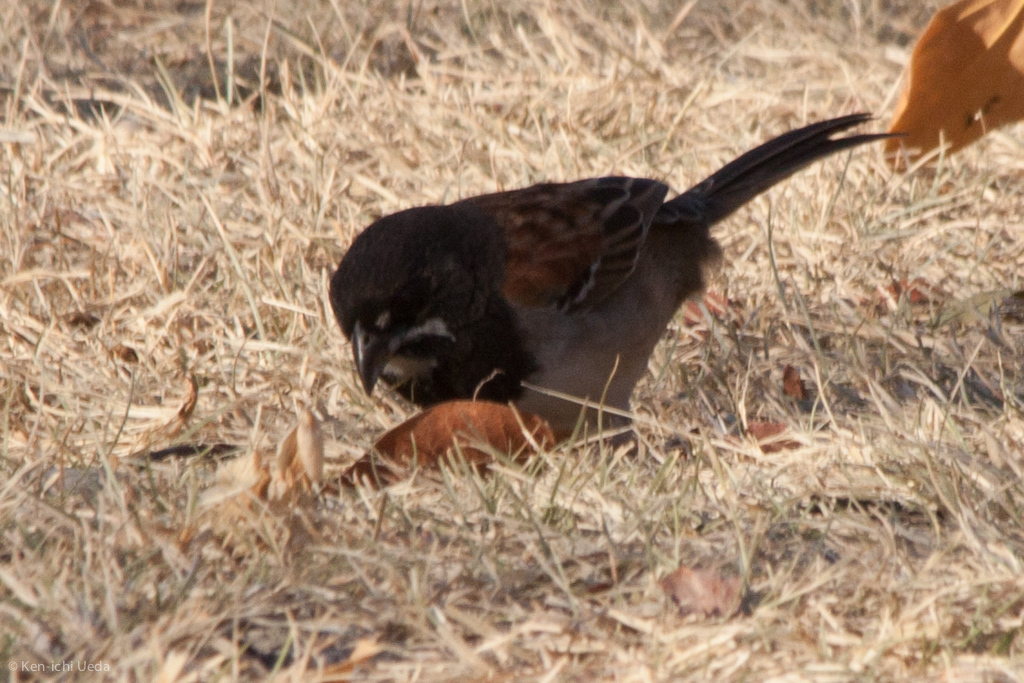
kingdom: Animalia
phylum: Chordata
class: Aves
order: Passeriformes
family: Passerellidae
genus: Peucaea
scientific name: Peucaea humeralis
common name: Black-chested sparrow
